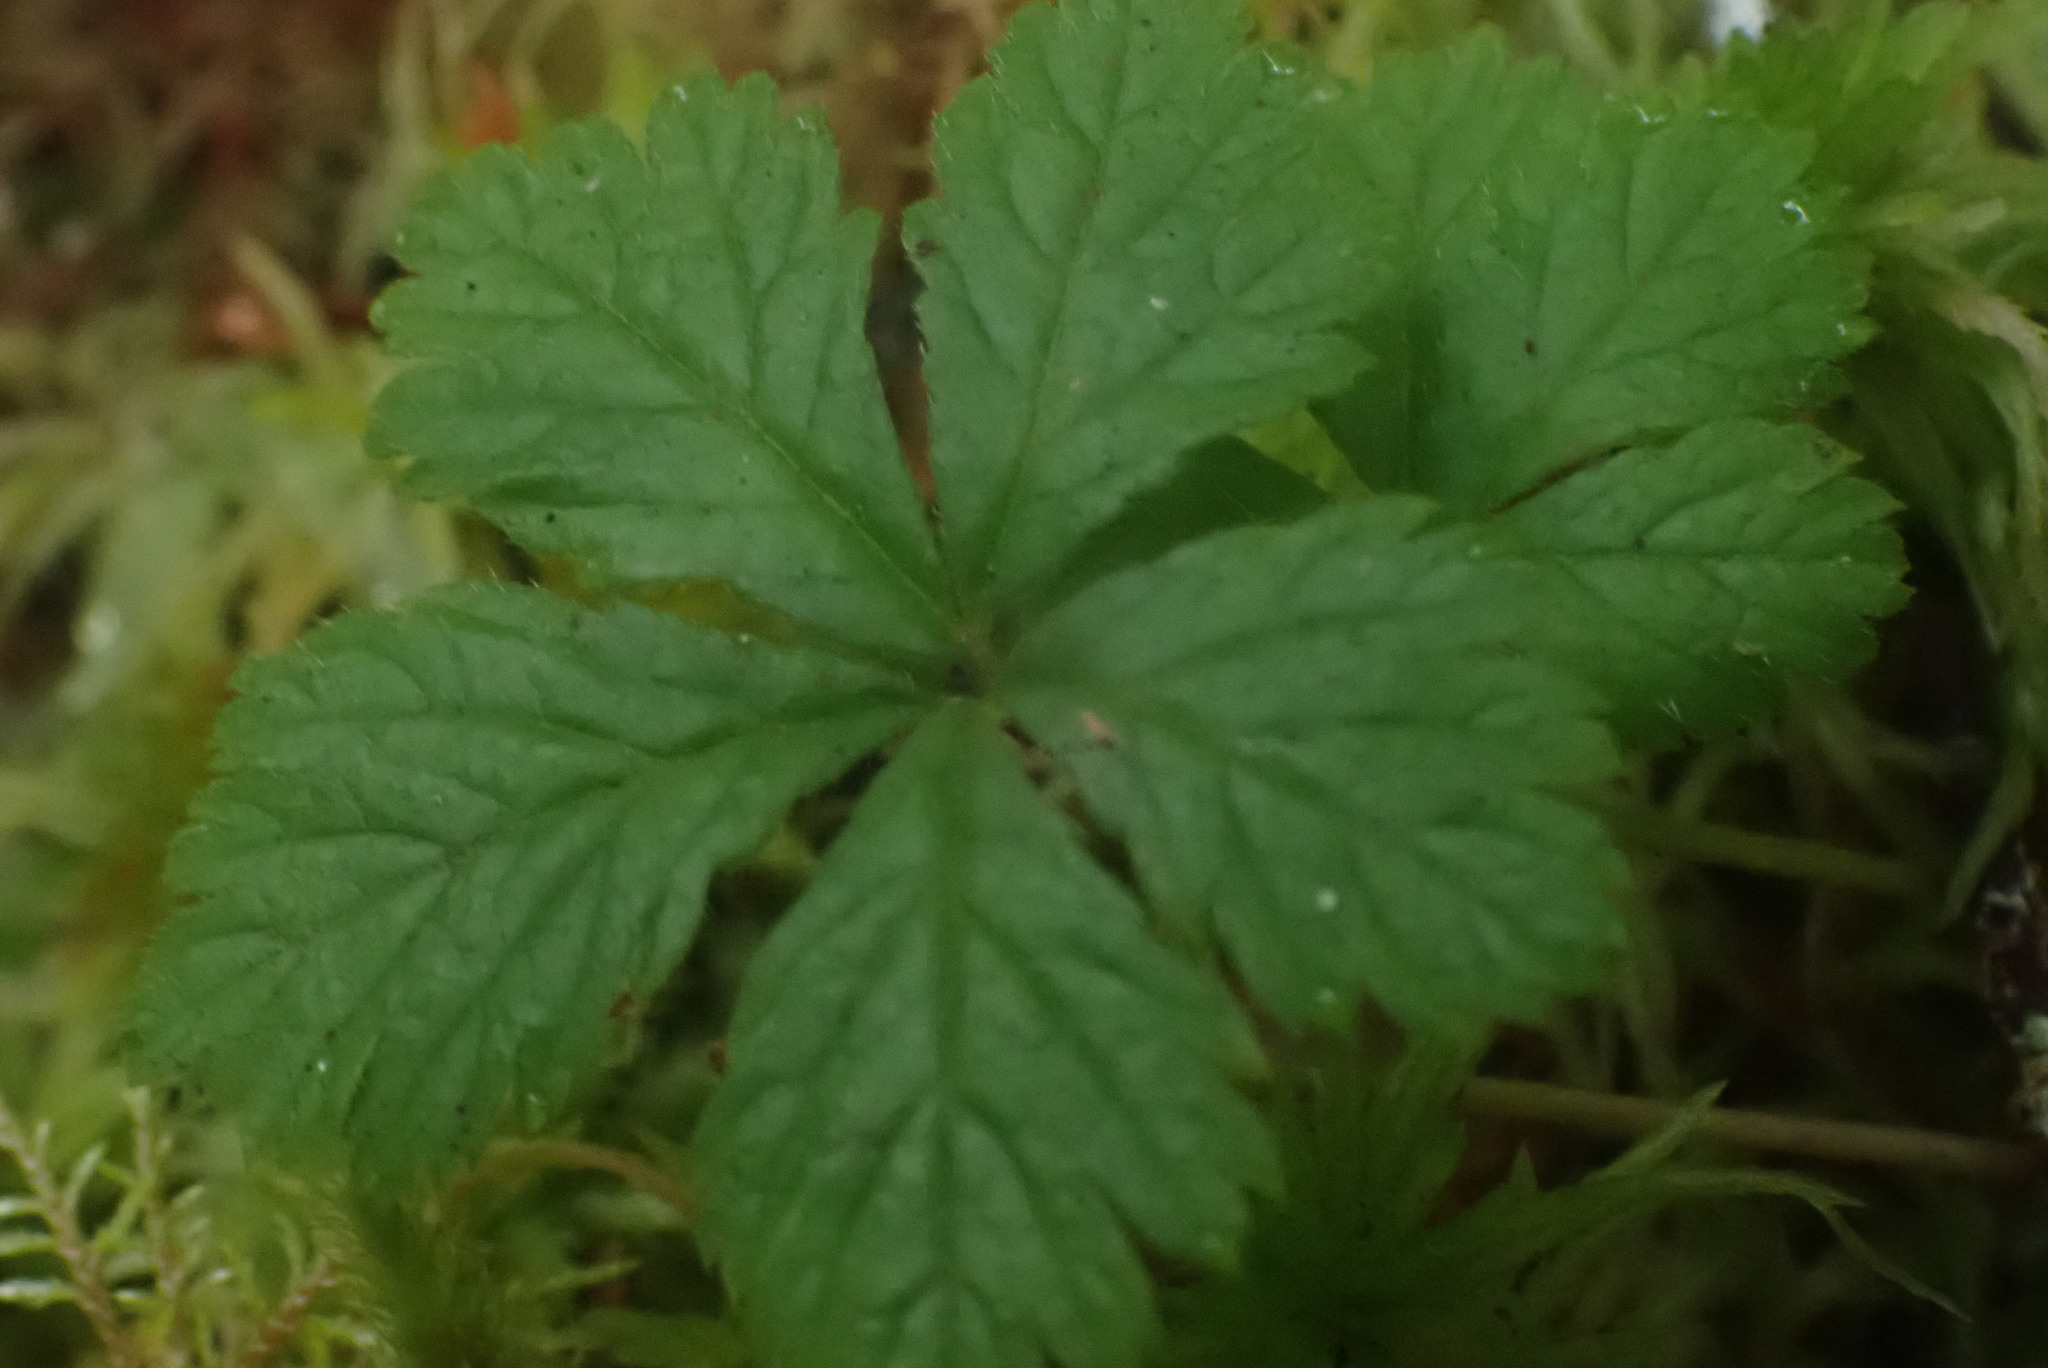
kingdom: Plantae
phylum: Tracheophyta
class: Magnoliopsida
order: Rosales
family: Rosaceae
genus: Rubus
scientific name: Rubus pedatus
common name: Creeping raspberry
